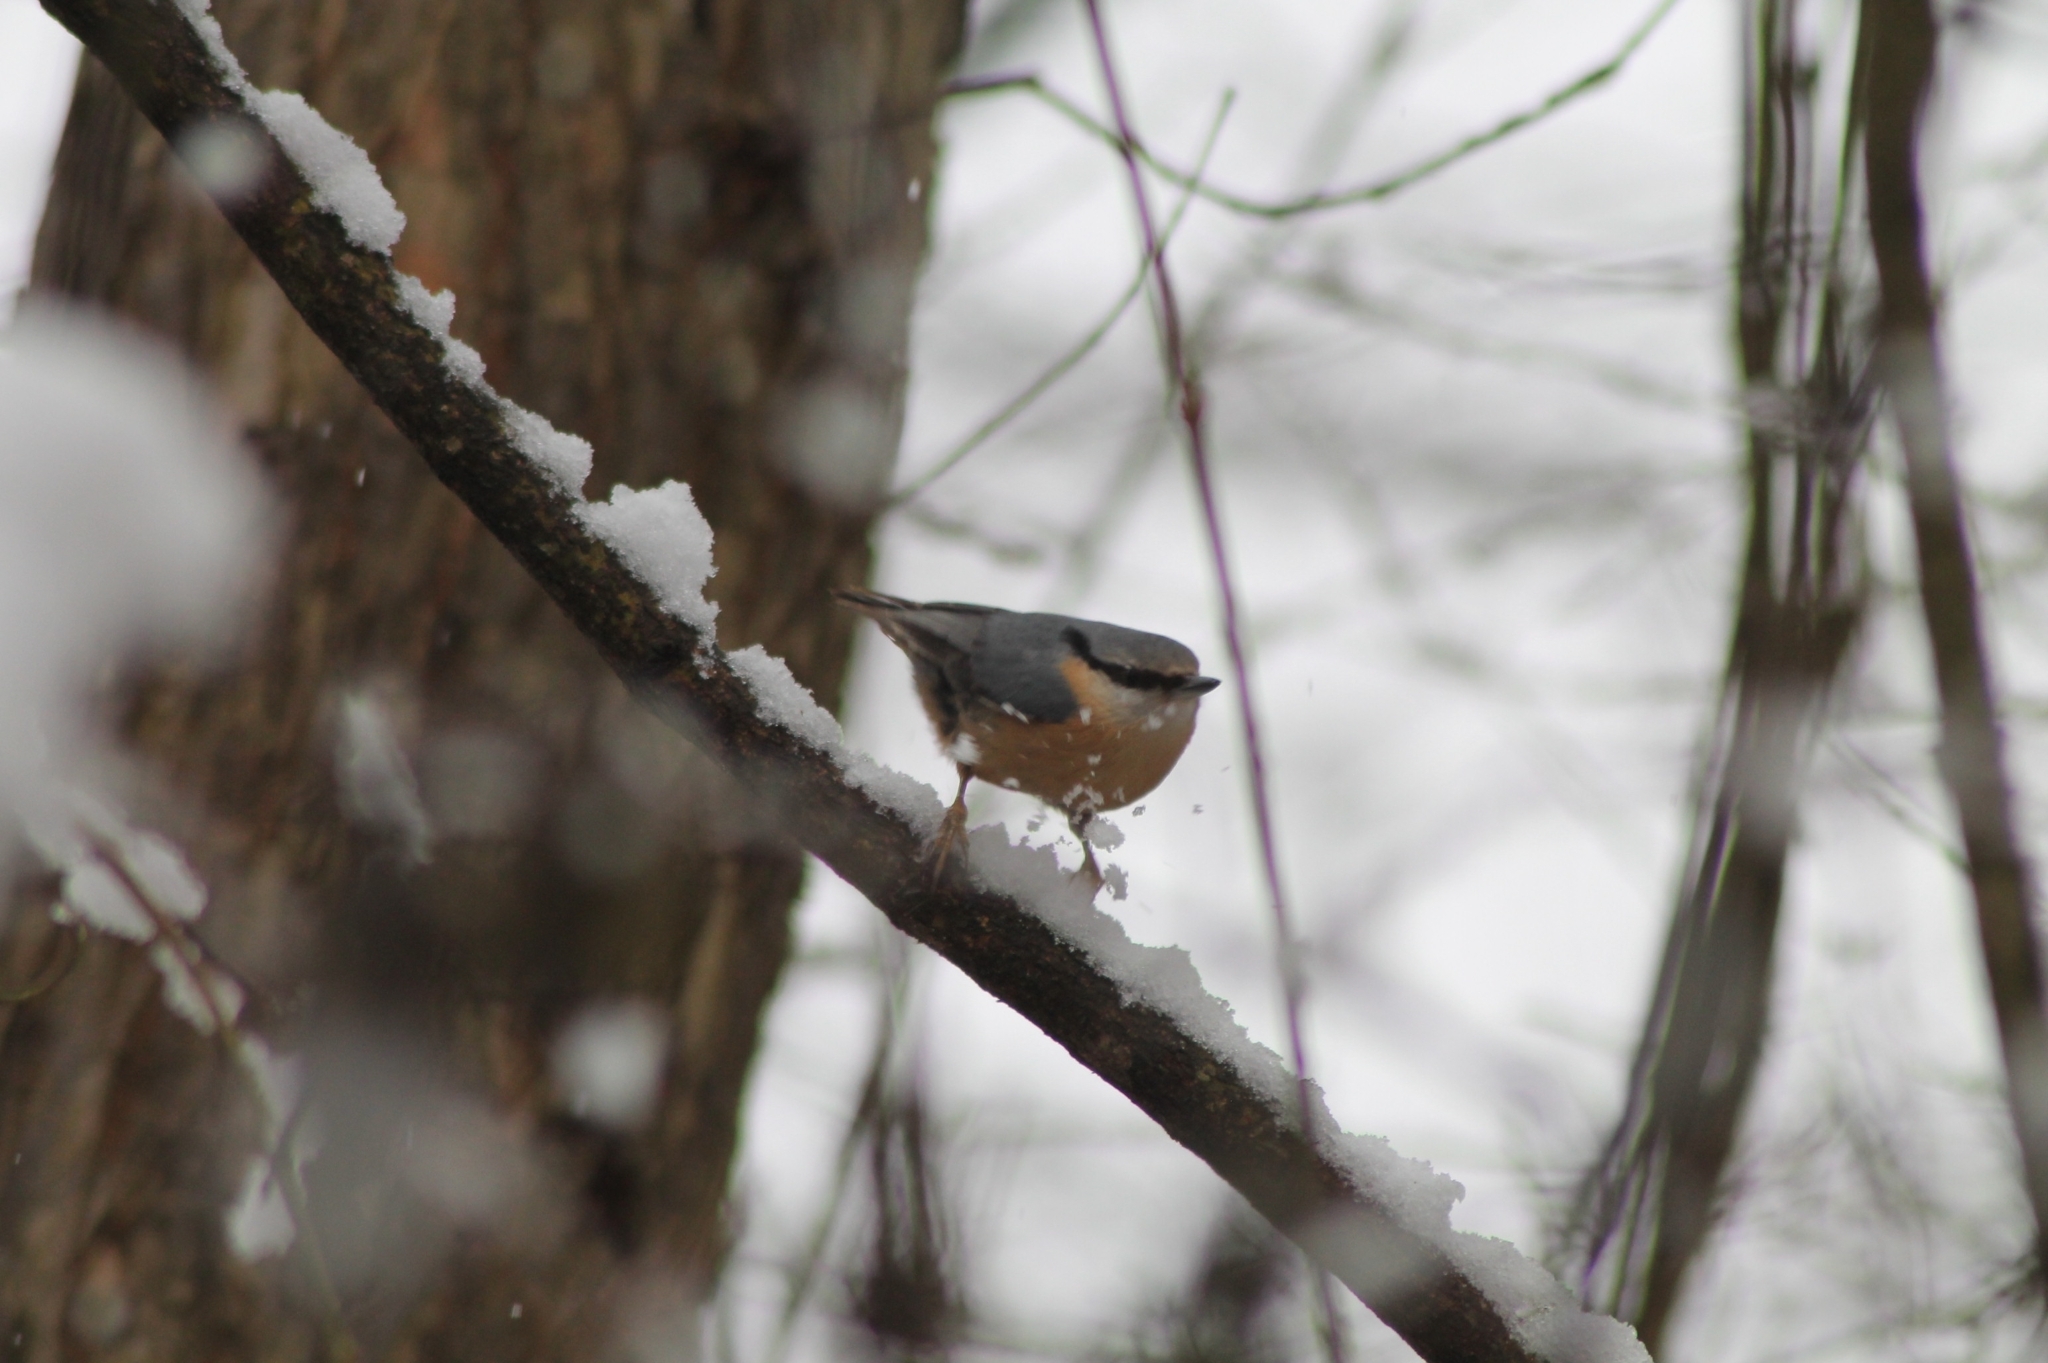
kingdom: Animalia
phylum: Chordata
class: Aves
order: Passeriformes
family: Sittidae
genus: Sitta
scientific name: Sitta europaea
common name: Eurasian nuthatch
